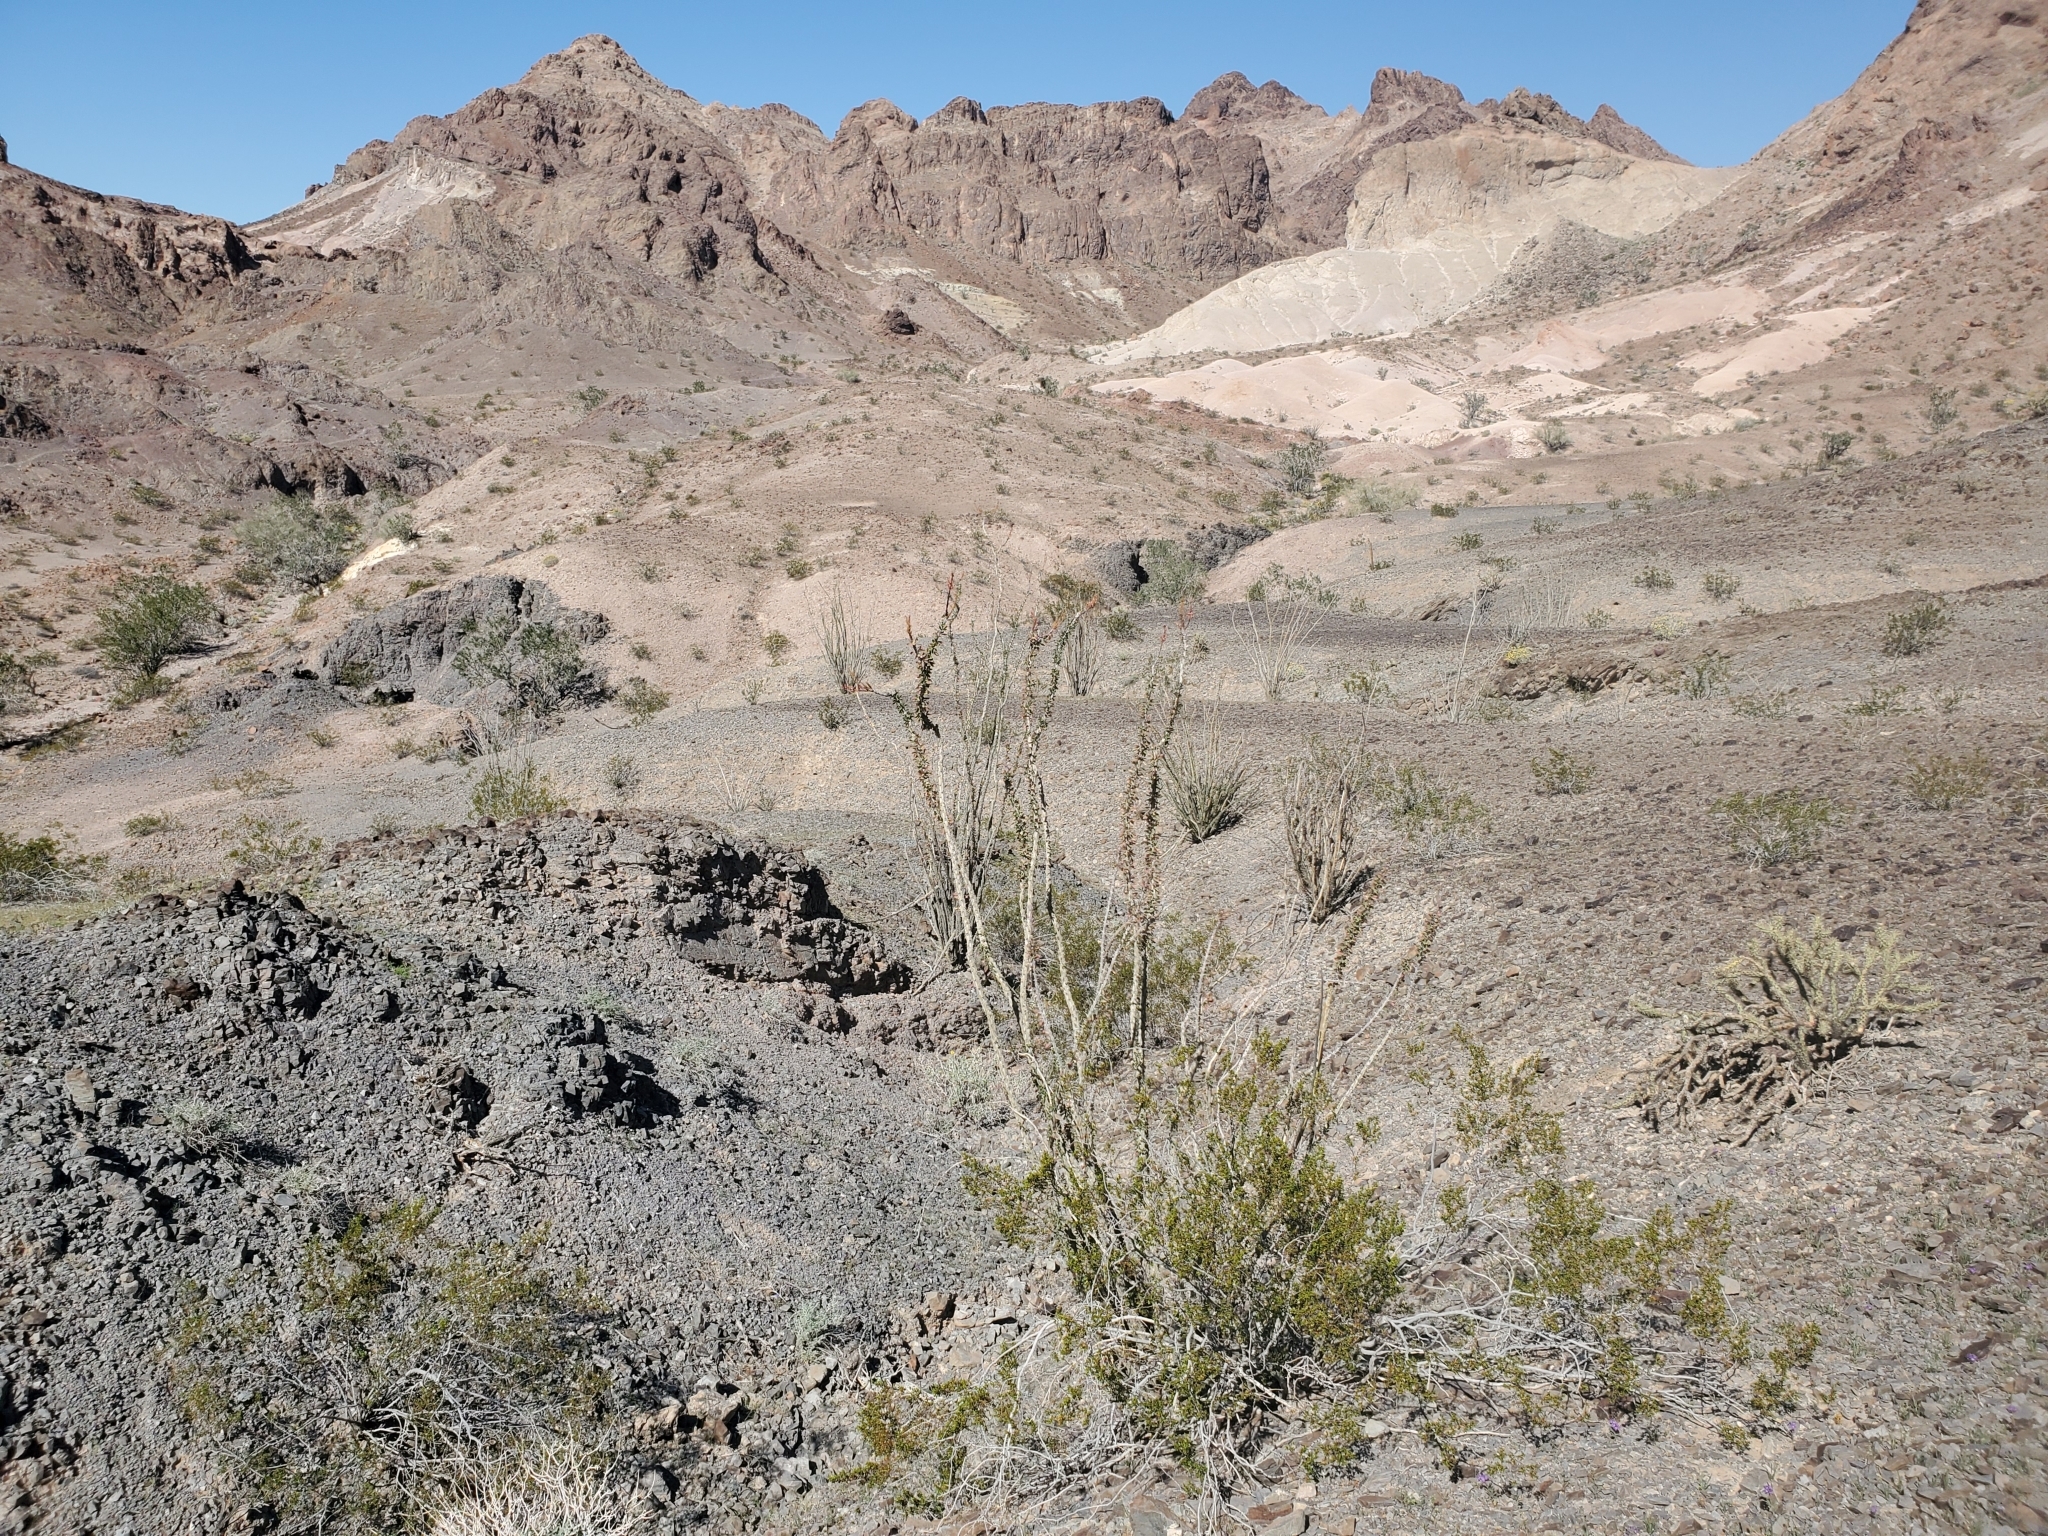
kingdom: Plantae
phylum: Tracheophyta
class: Magnoliopsida
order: Ericales
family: Fouquieriaceae
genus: Fouquieria
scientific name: Fouquieria splendens
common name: Vine-cactus
